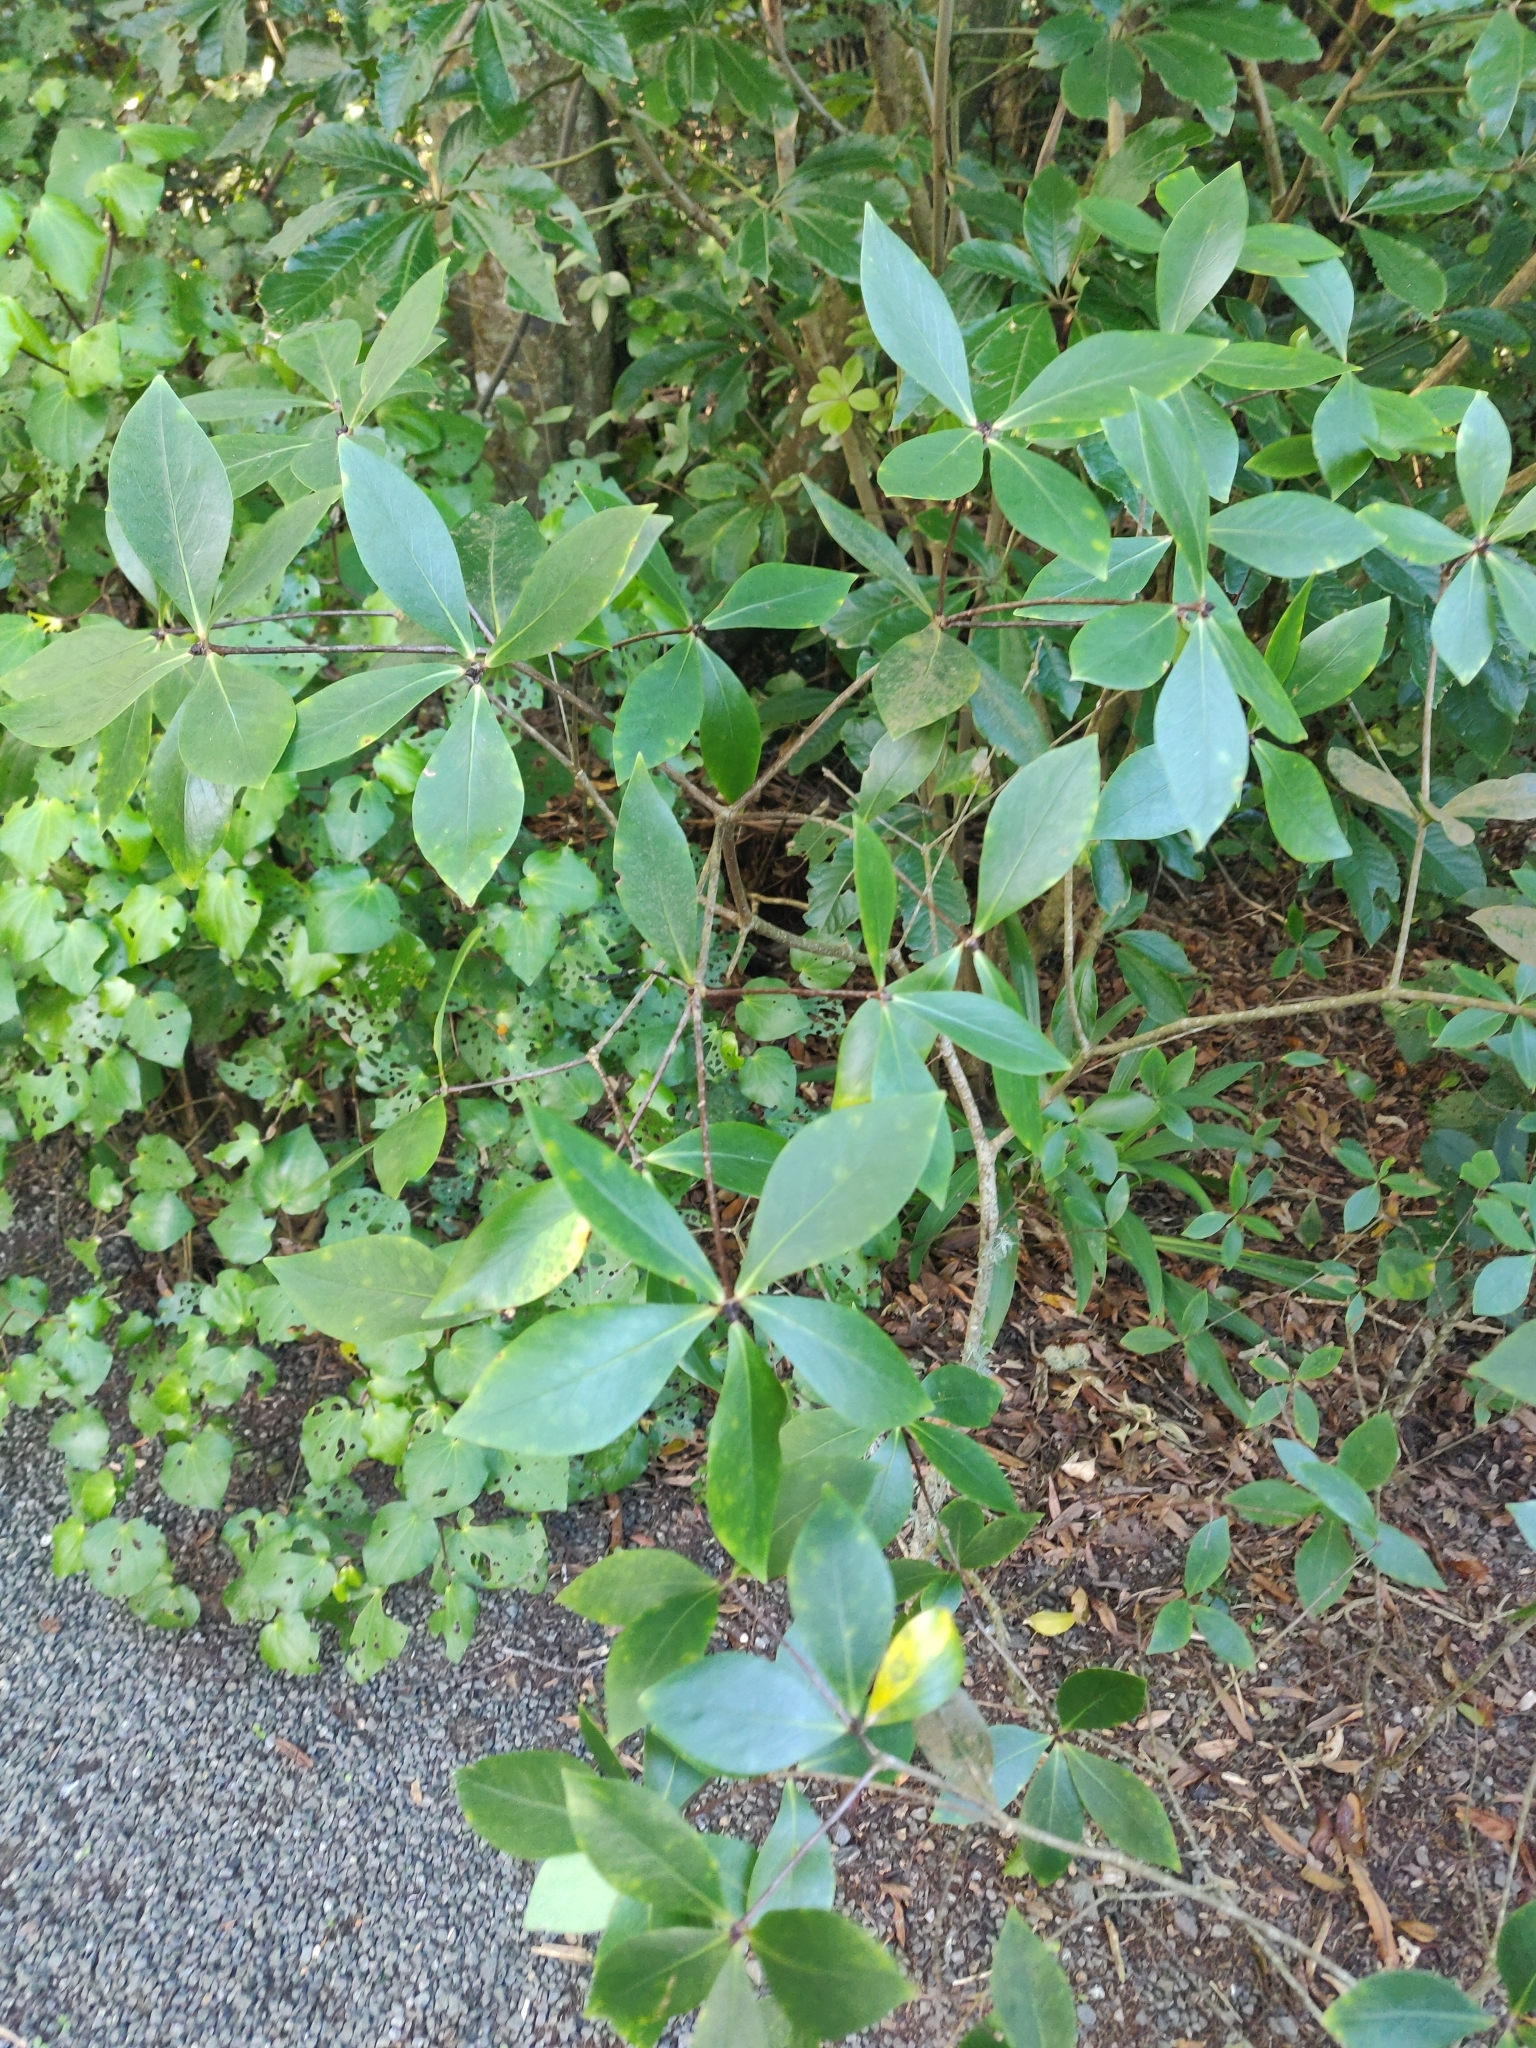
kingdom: Plantae
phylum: Tracheophyta
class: Magnoliopsida
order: Apiales
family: Pittosporaceae
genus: Pittosporum
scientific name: Pittosporum cornifolium
